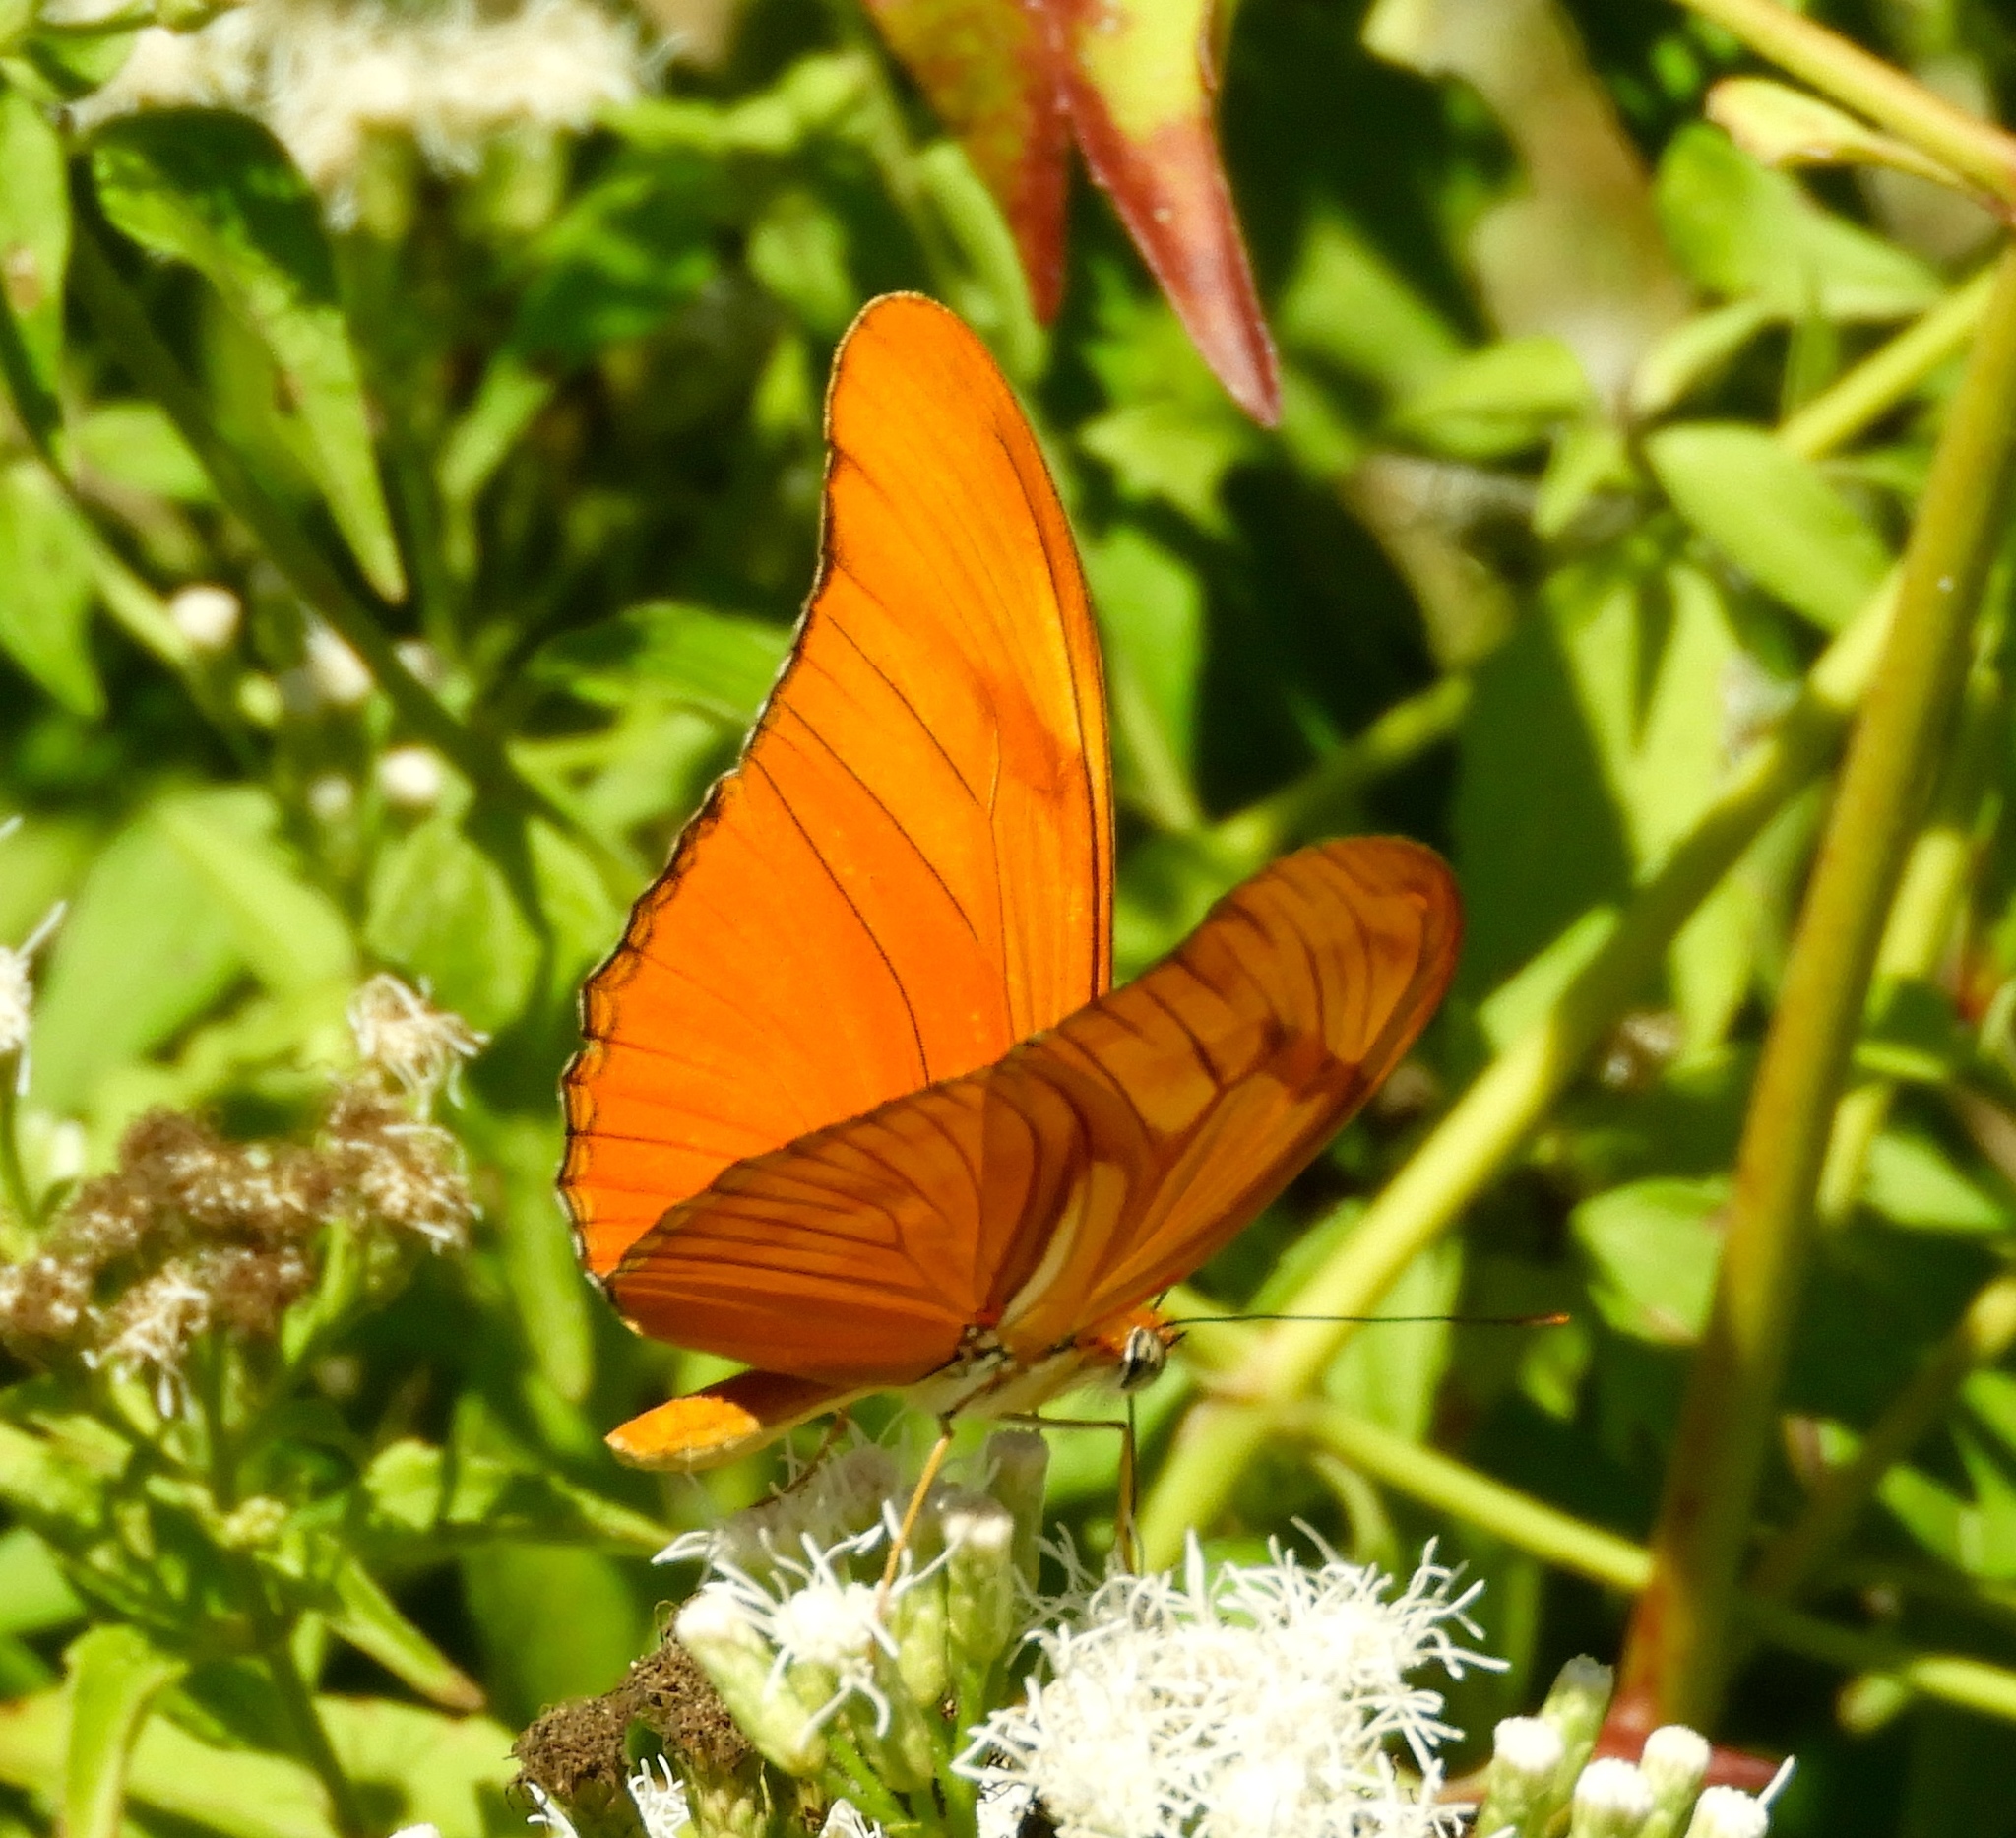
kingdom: Animalia
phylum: Arthropoda
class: Insecta
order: Lepidoptera
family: Nymphalidae
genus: Dryas
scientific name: Dryas iulia
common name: Flambeau
